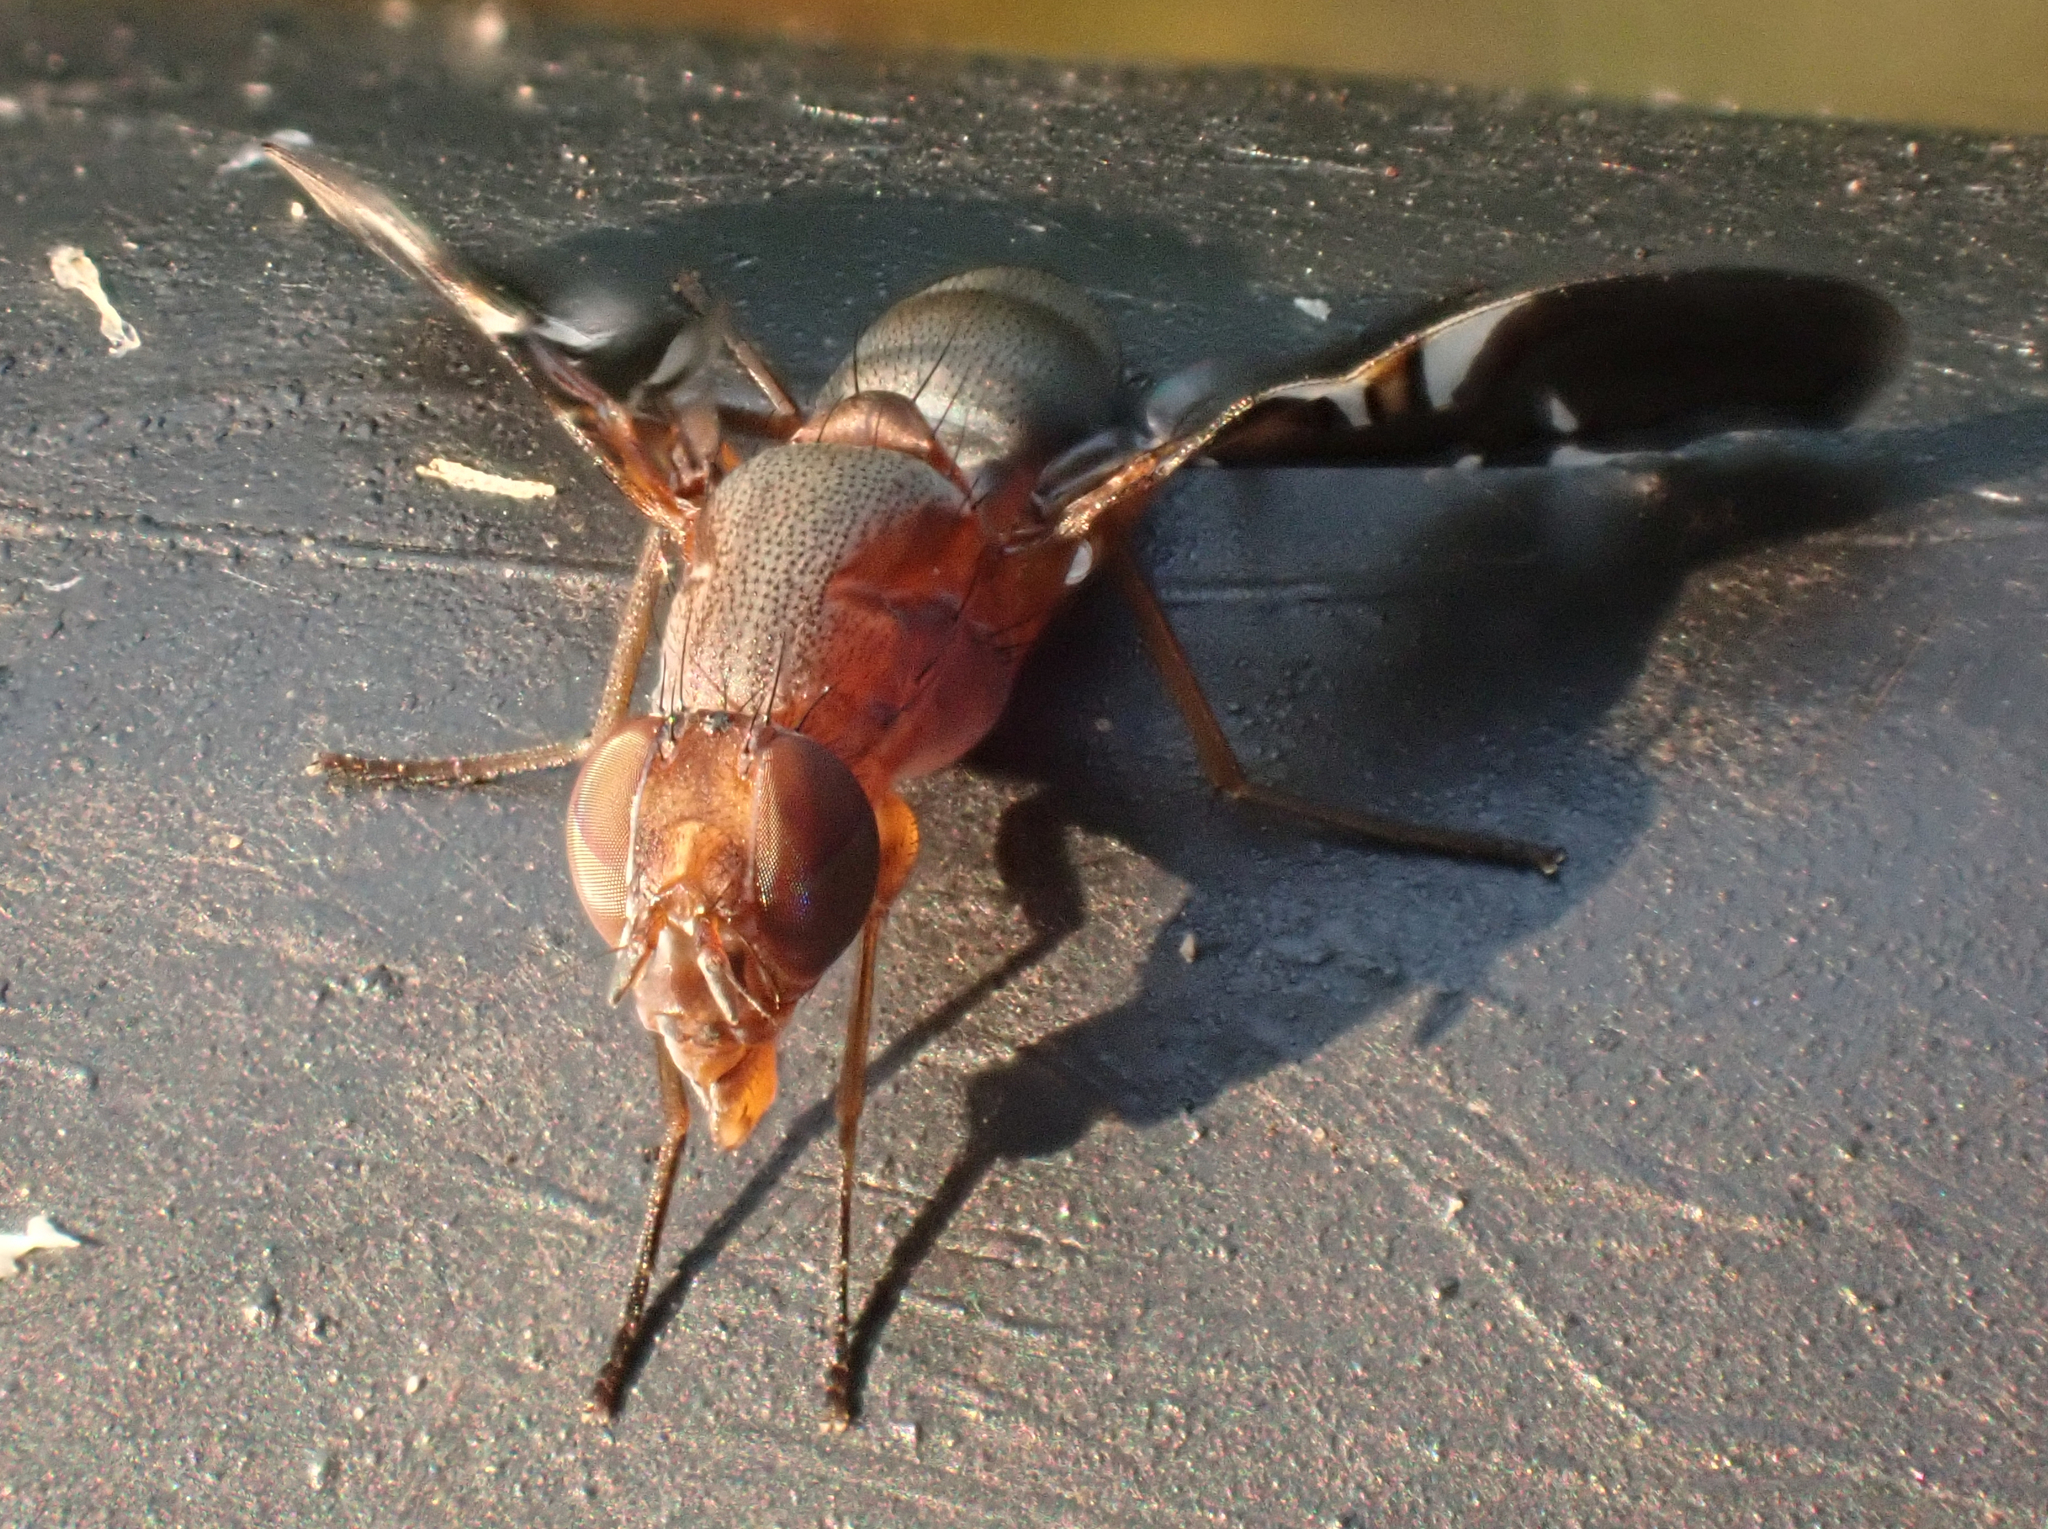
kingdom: Animalia
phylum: Arthropoda
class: Insecta
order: Diptera
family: Ulidiidae
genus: Delphinia
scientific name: Delphinia picta
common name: Common picture-winged fly
